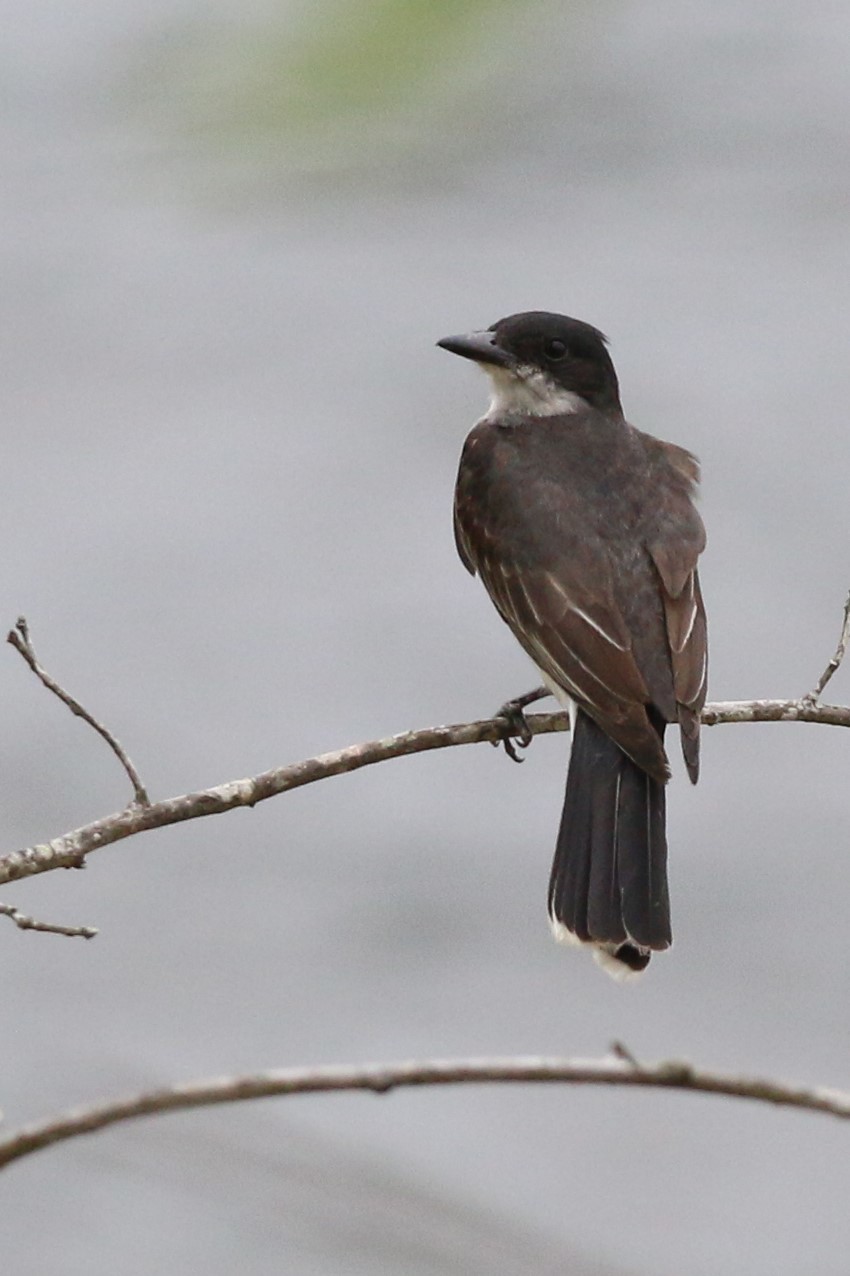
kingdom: Animalia
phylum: Chordata
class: Aves
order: Passeriformes
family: Tyrannidae
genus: Tyrannus
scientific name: Tyrannus tyrannus
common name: Eastern kingbird
